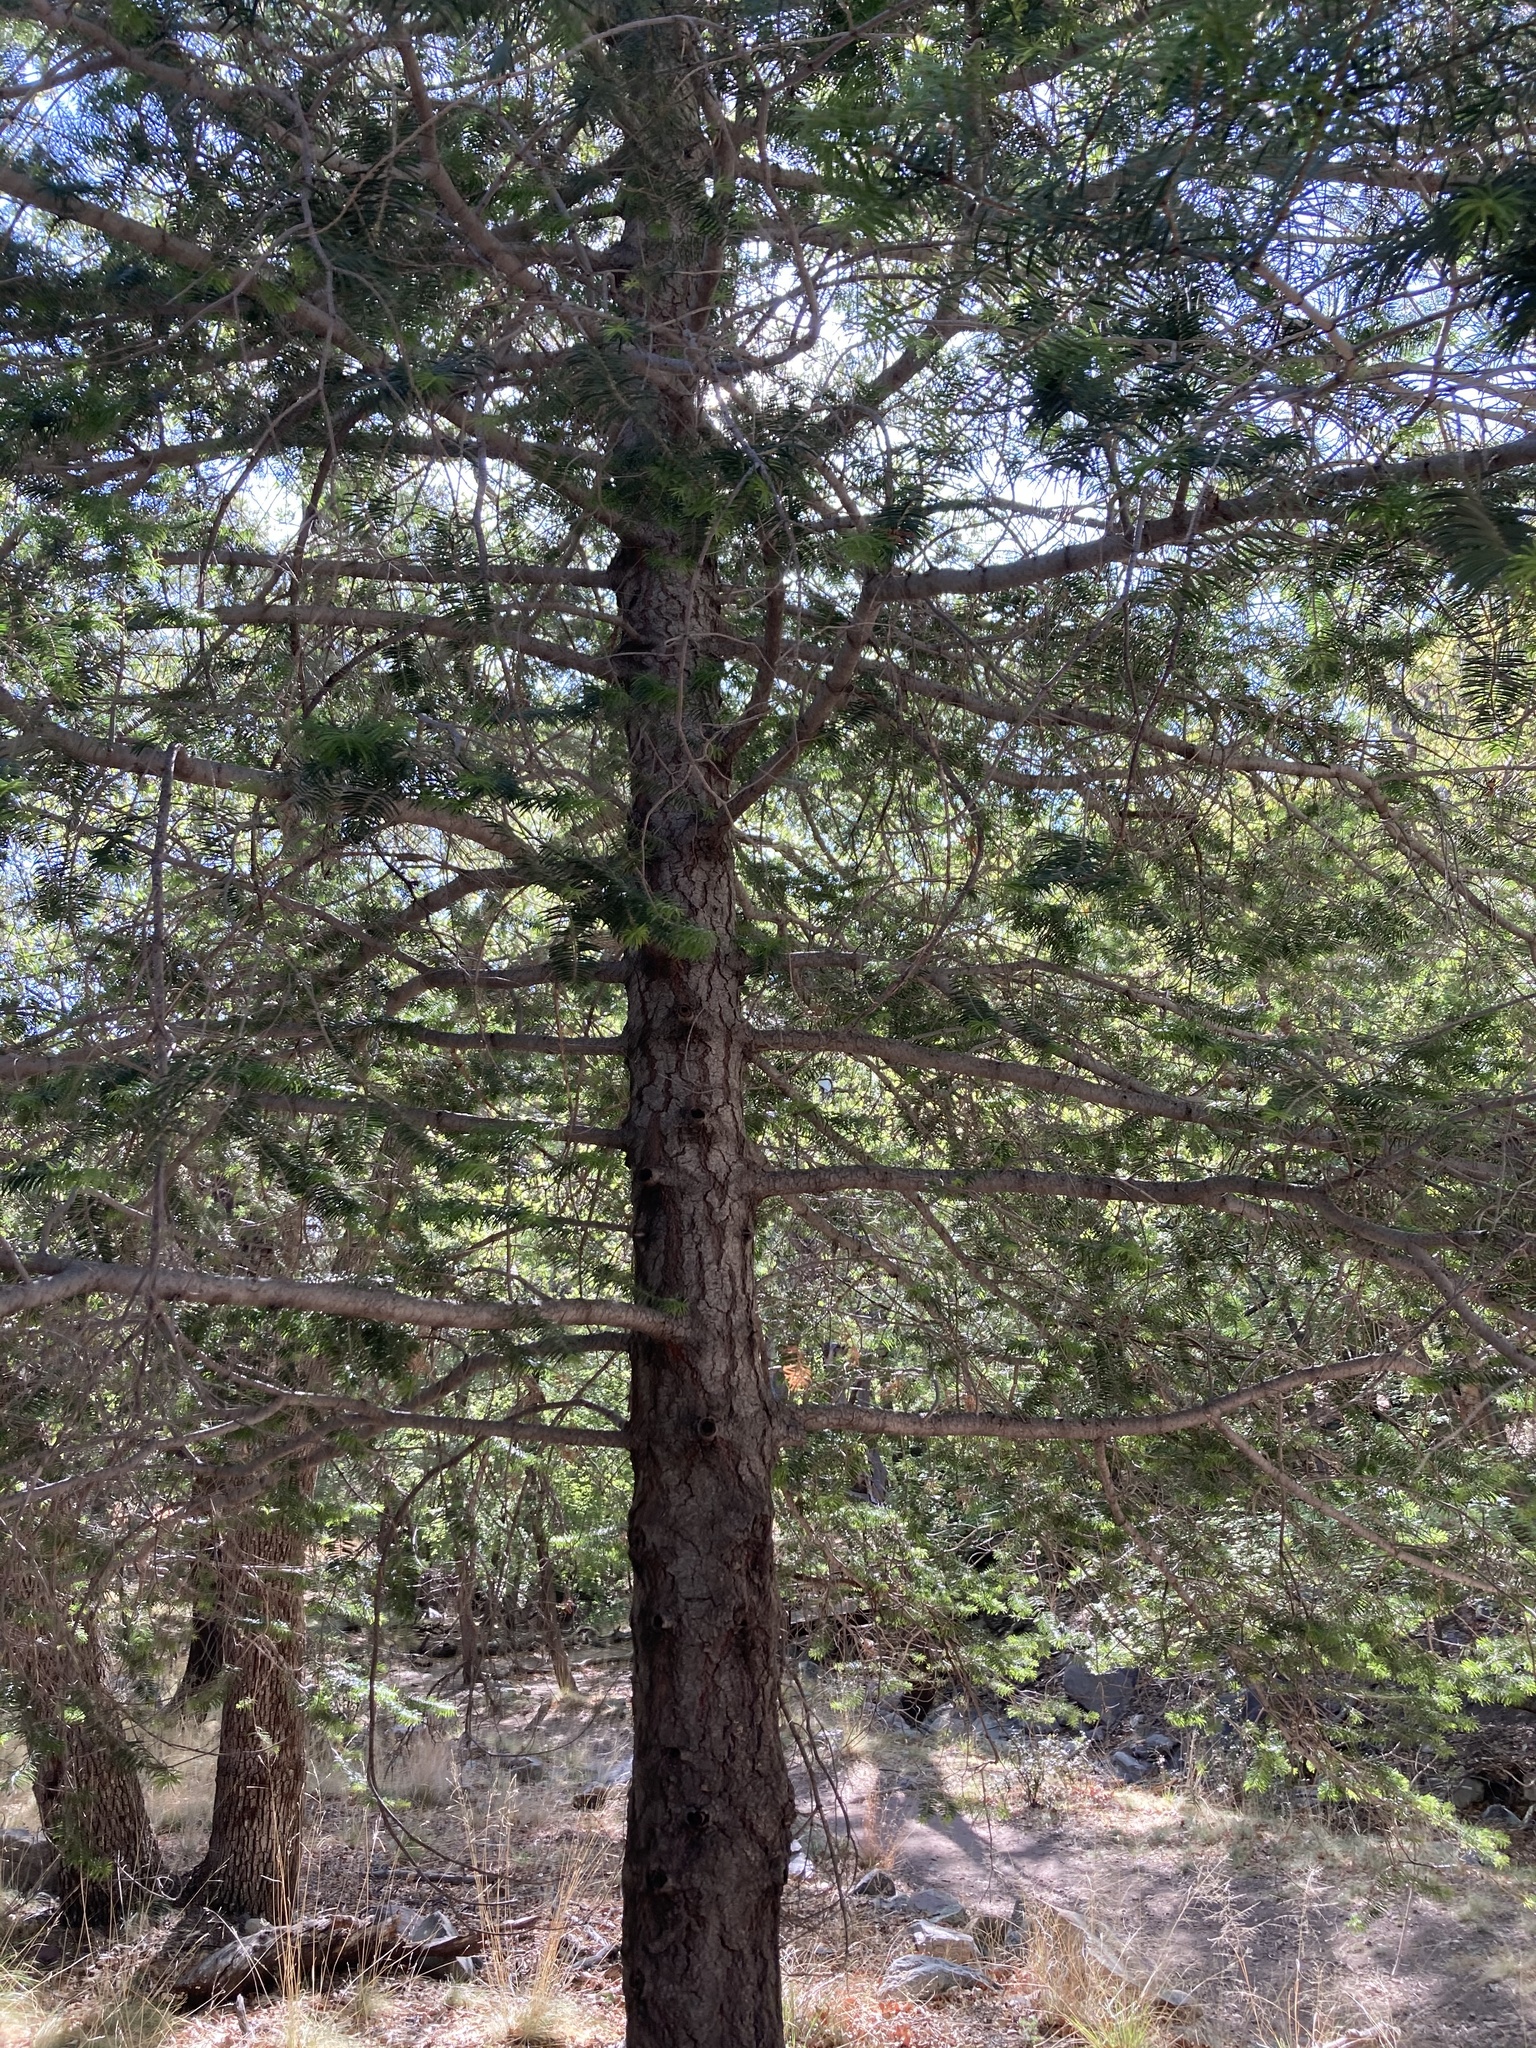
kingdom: Plantae
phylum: Tracheophyta
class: Pinopsida
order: Pinales
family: Pinaceae
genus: Abies
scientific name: Abies concolor
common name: Colorado fir
